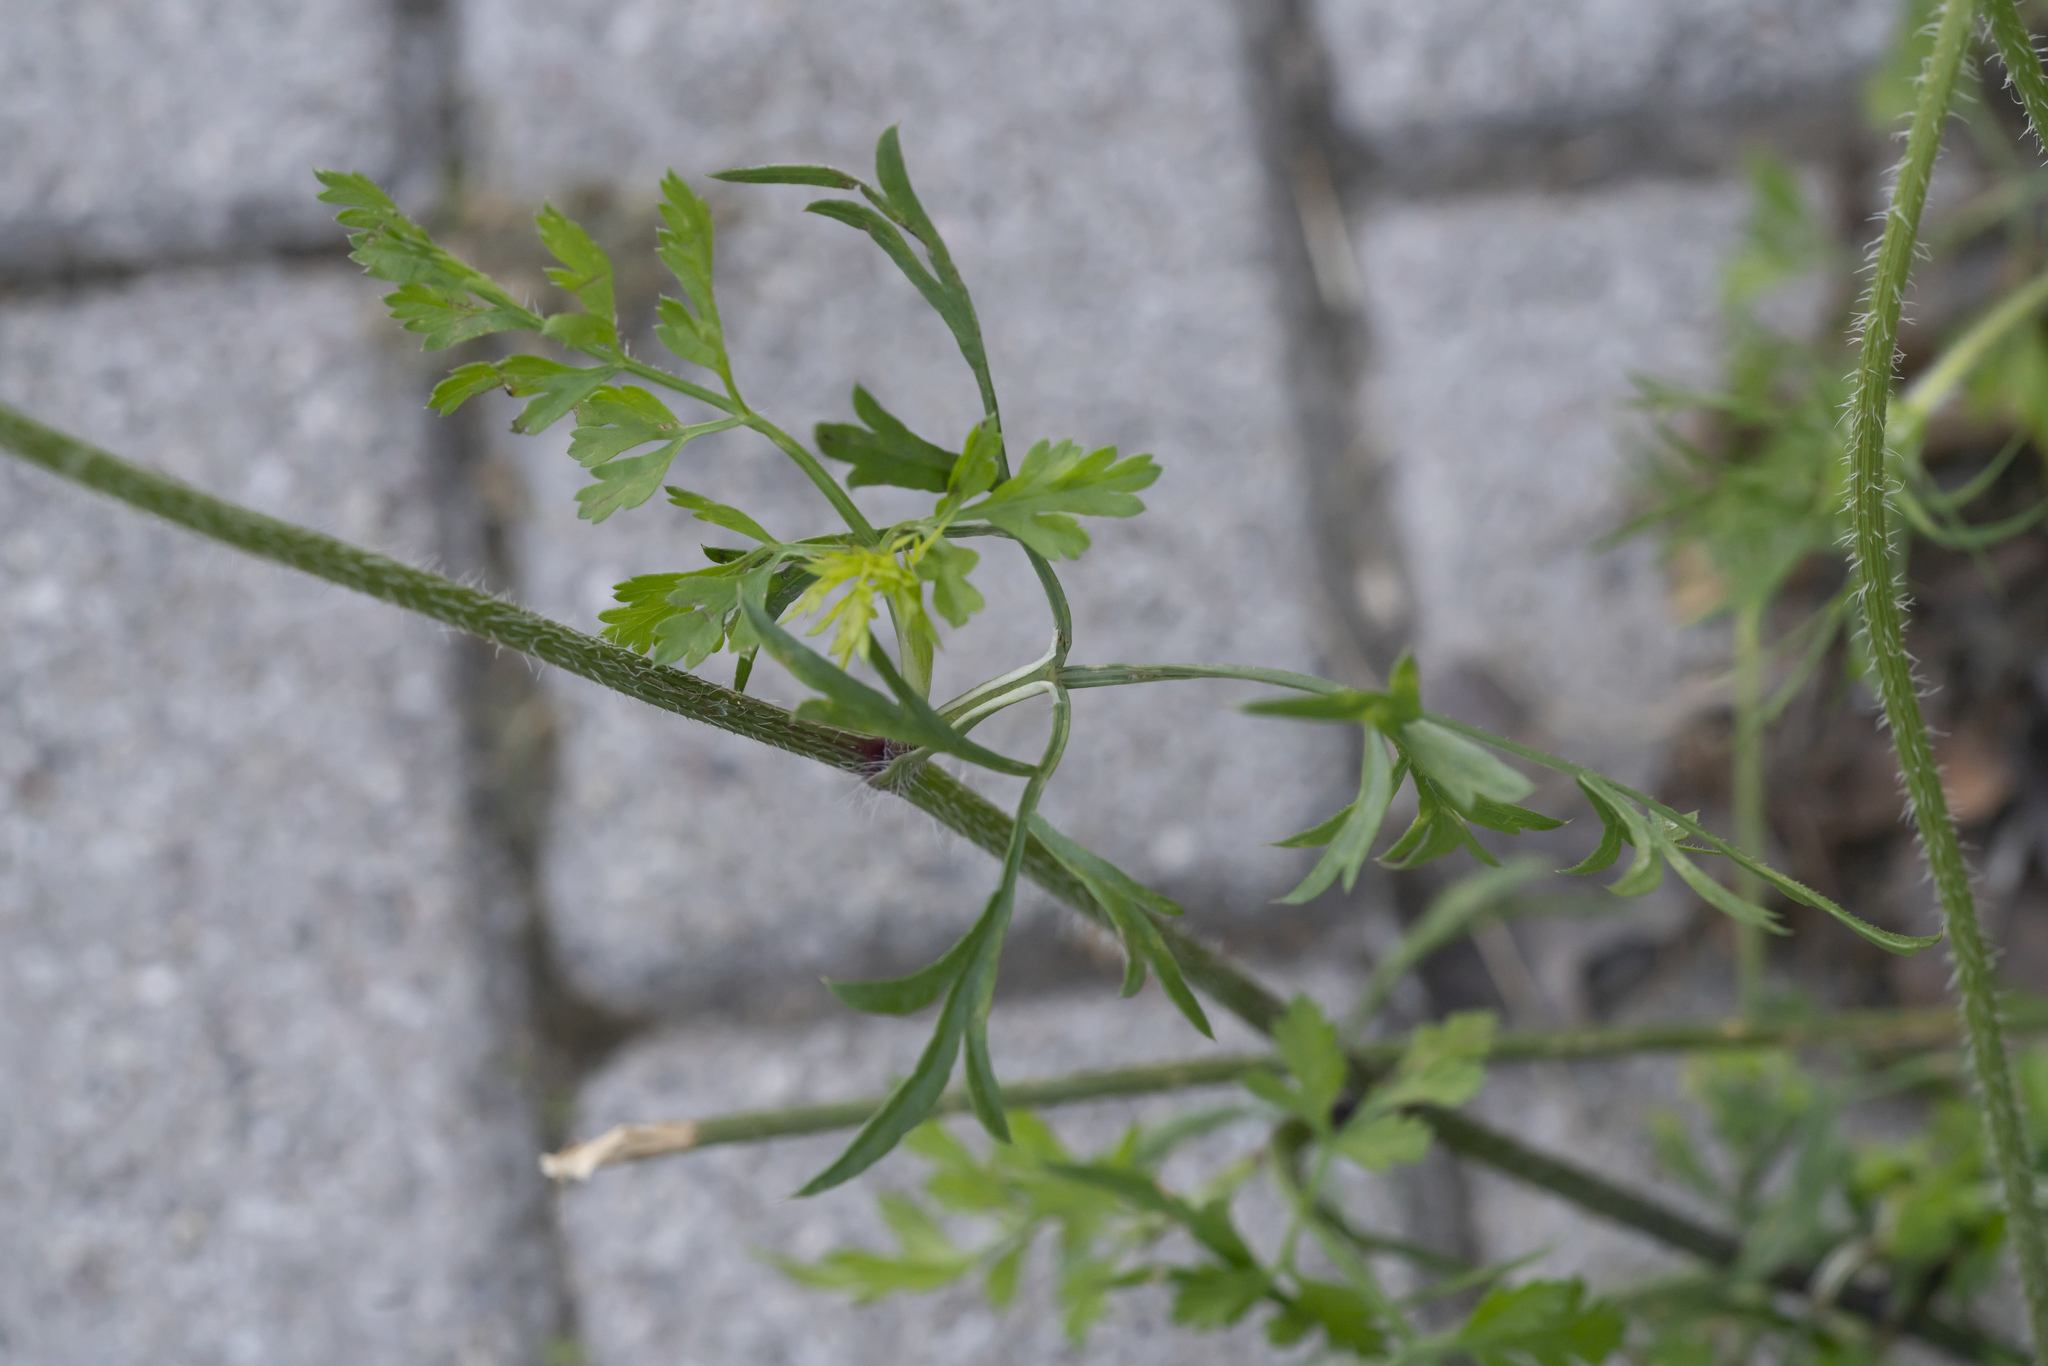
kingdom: Plantae
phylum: Tracheophyta
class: Magnoliopsida
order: Apiales
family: Apiaceae
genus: Daucus
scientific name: Daucus carota
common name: Wild carrot
